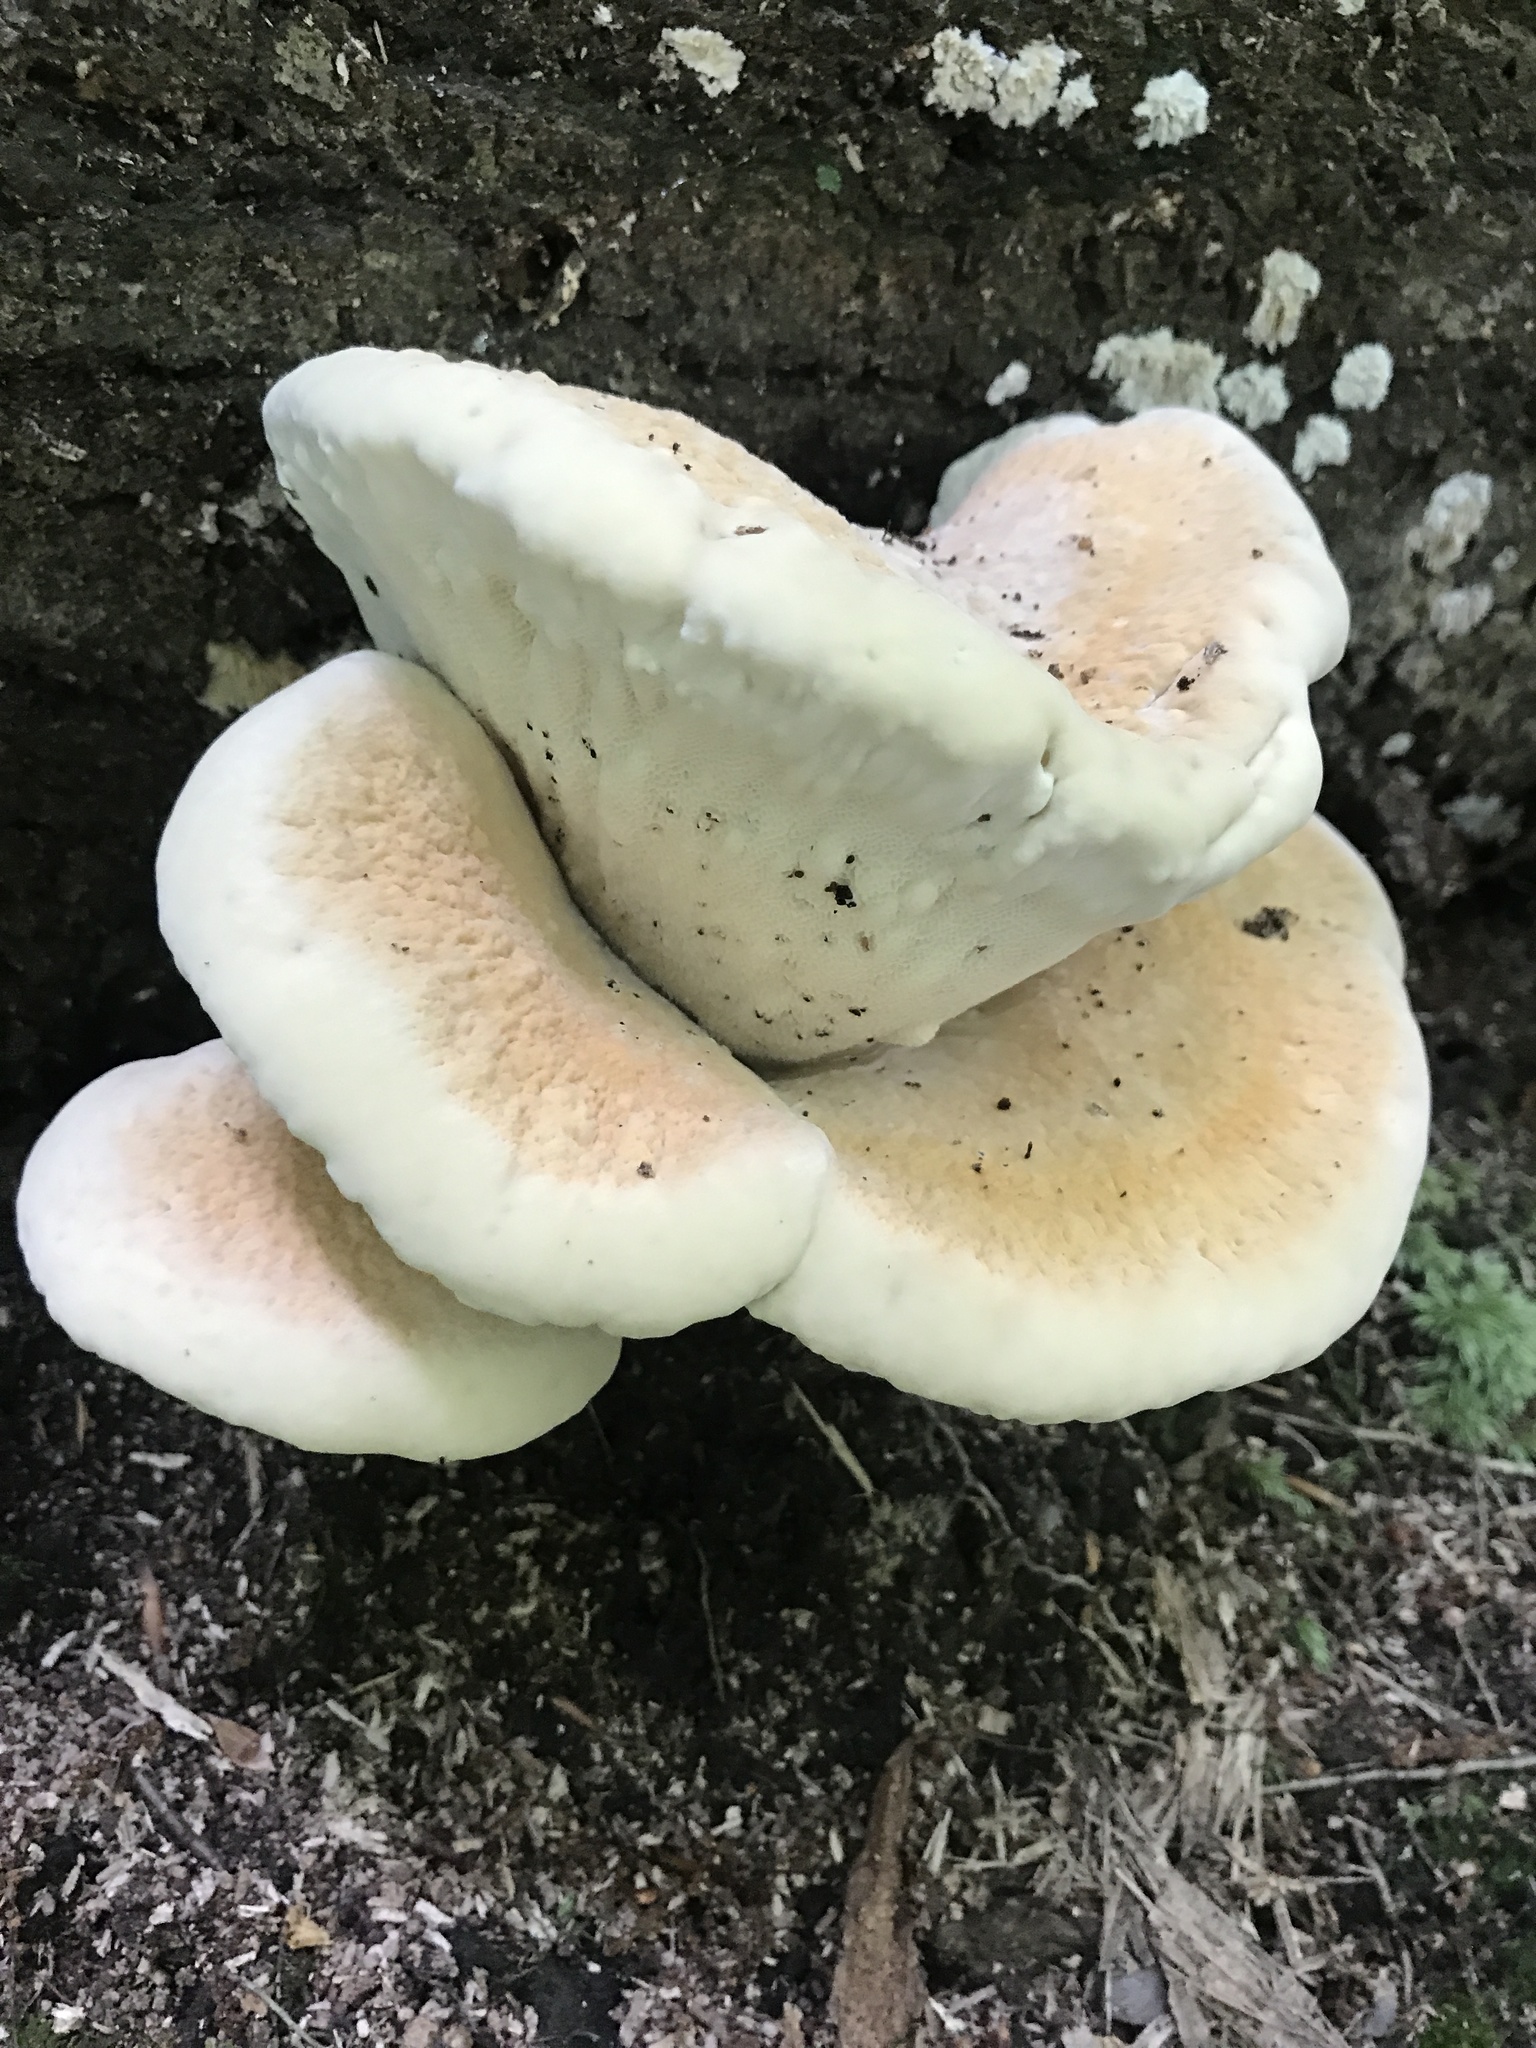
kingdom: Fungi
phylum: Basidiomycota
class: Agaricomycetes
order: Russulales
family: Bondarzewiaceae
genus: Bondarzewia
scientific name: Bondarzewia berkeleyi
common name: Berkeley's polypore
